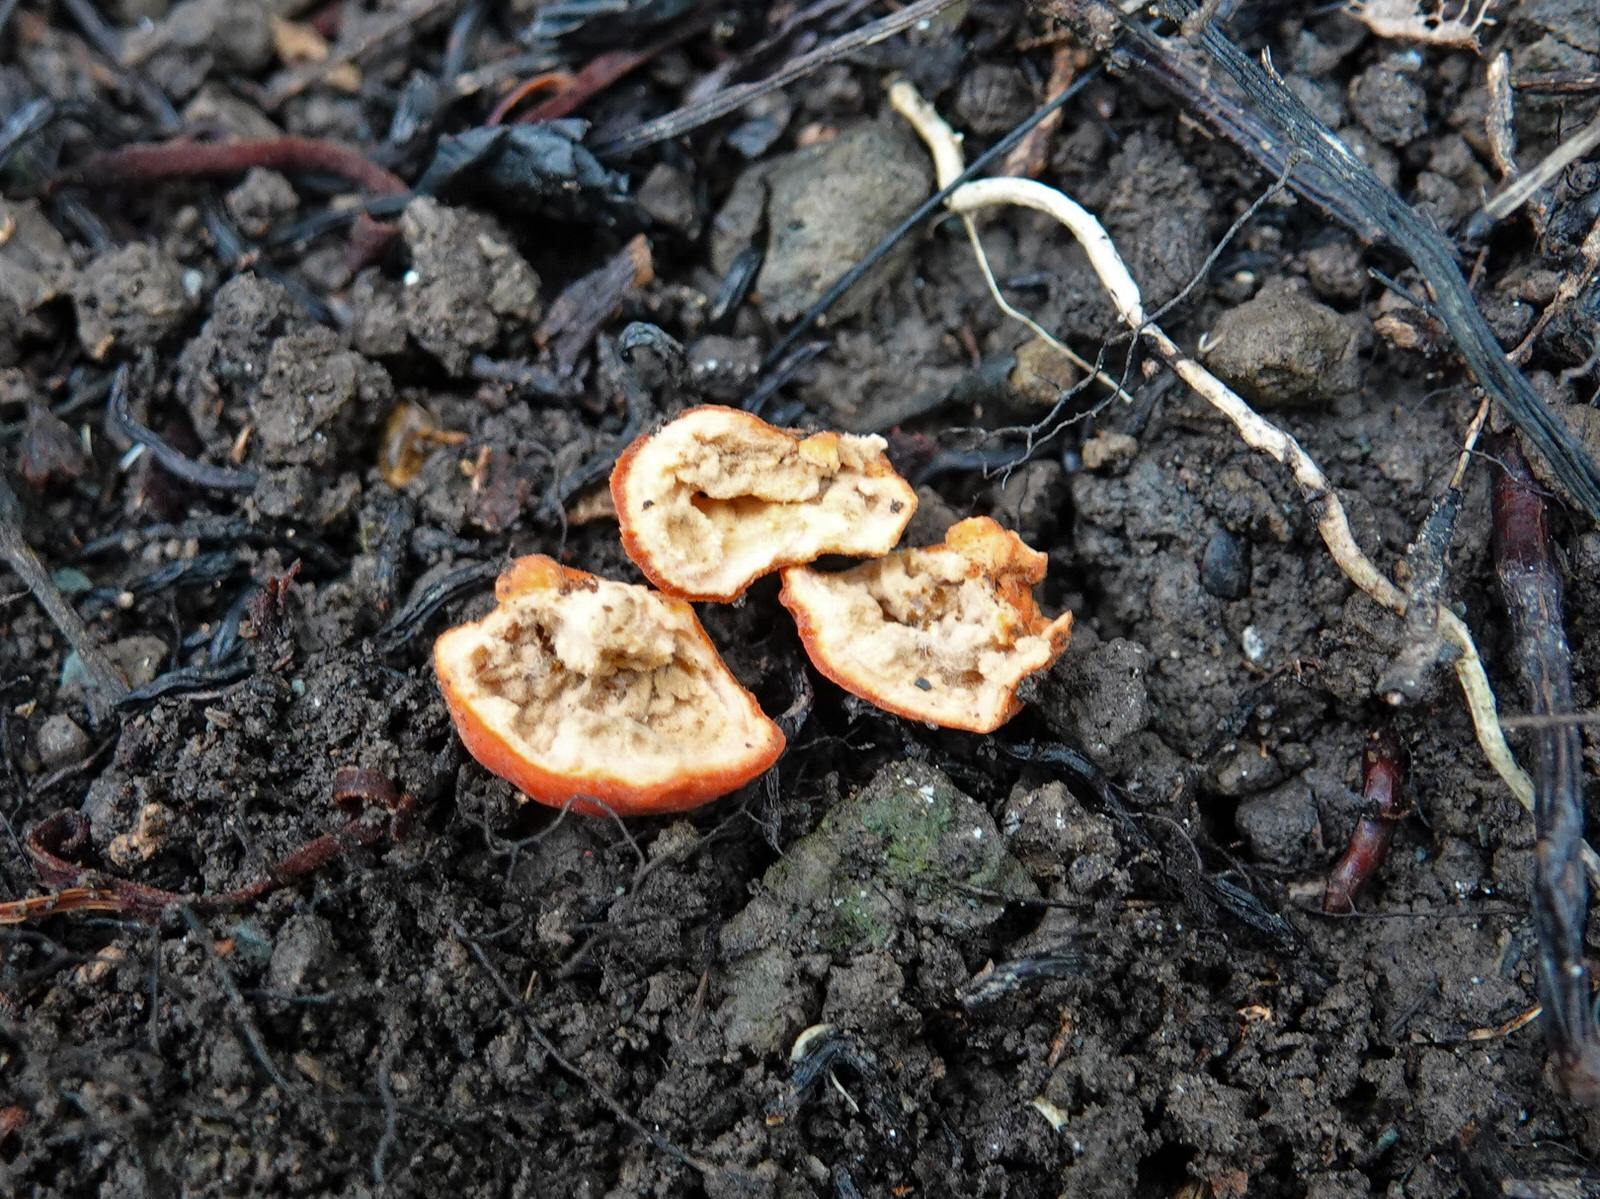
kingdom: Fungi
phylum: Ascomycota
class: Pezizomycetes
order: Pezizales
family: Pyronemataceae
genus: Paurocotylis
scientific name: Paurocotylis pila
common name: Scarlet berry truffle
